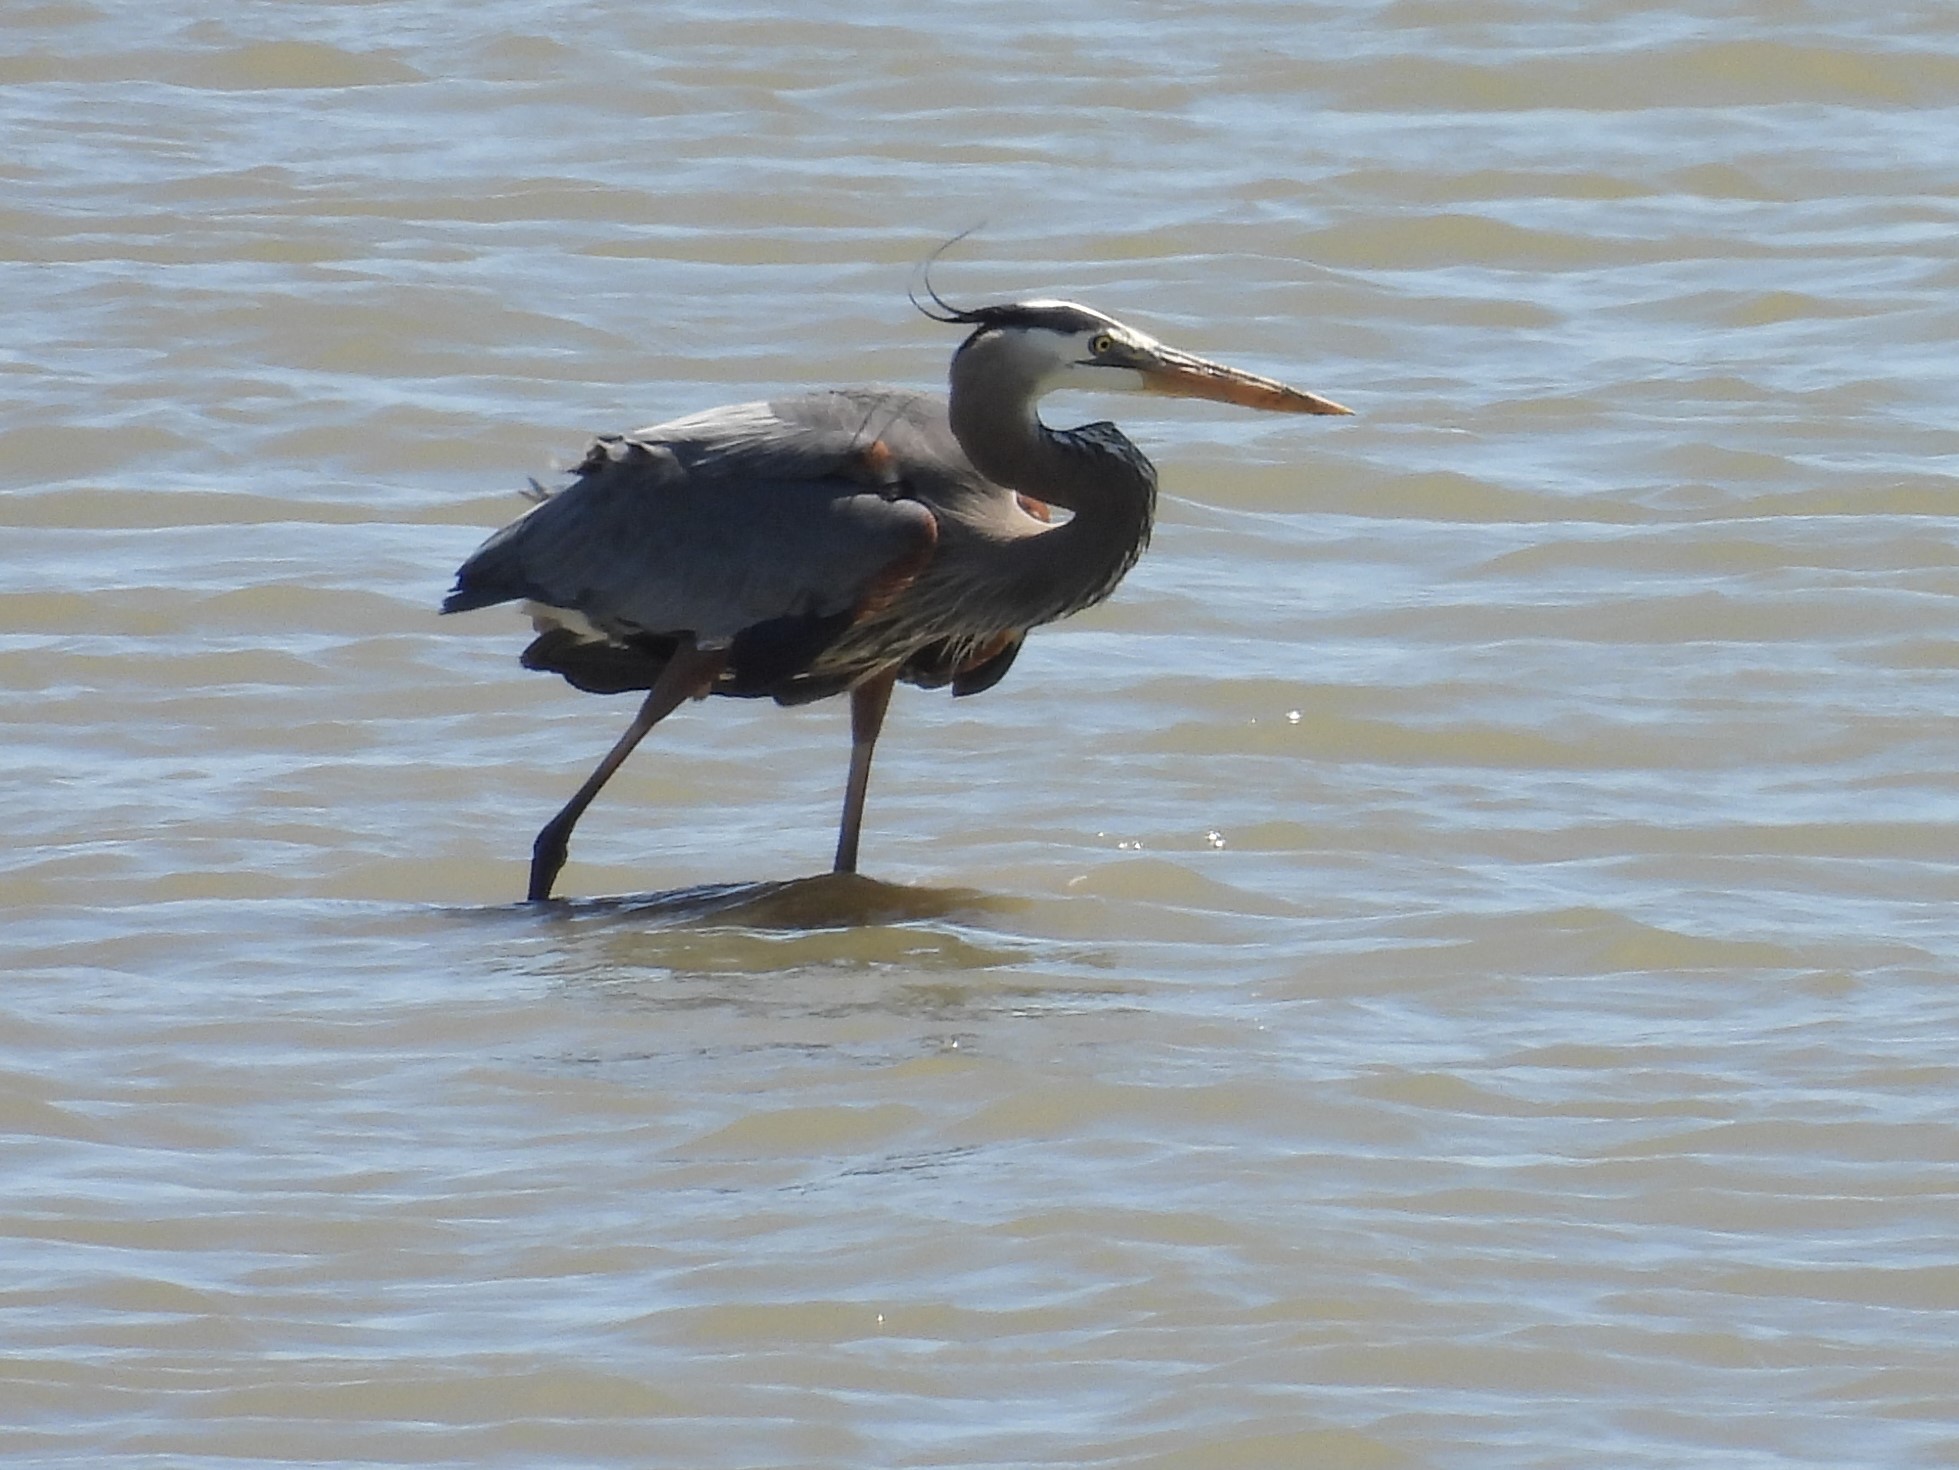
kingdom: Animalia
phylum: Chordata
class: Aves
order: Pelecaniformes
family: Ardeidae
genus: Ardea
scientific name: Ardea herodias
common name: Great blue heron
